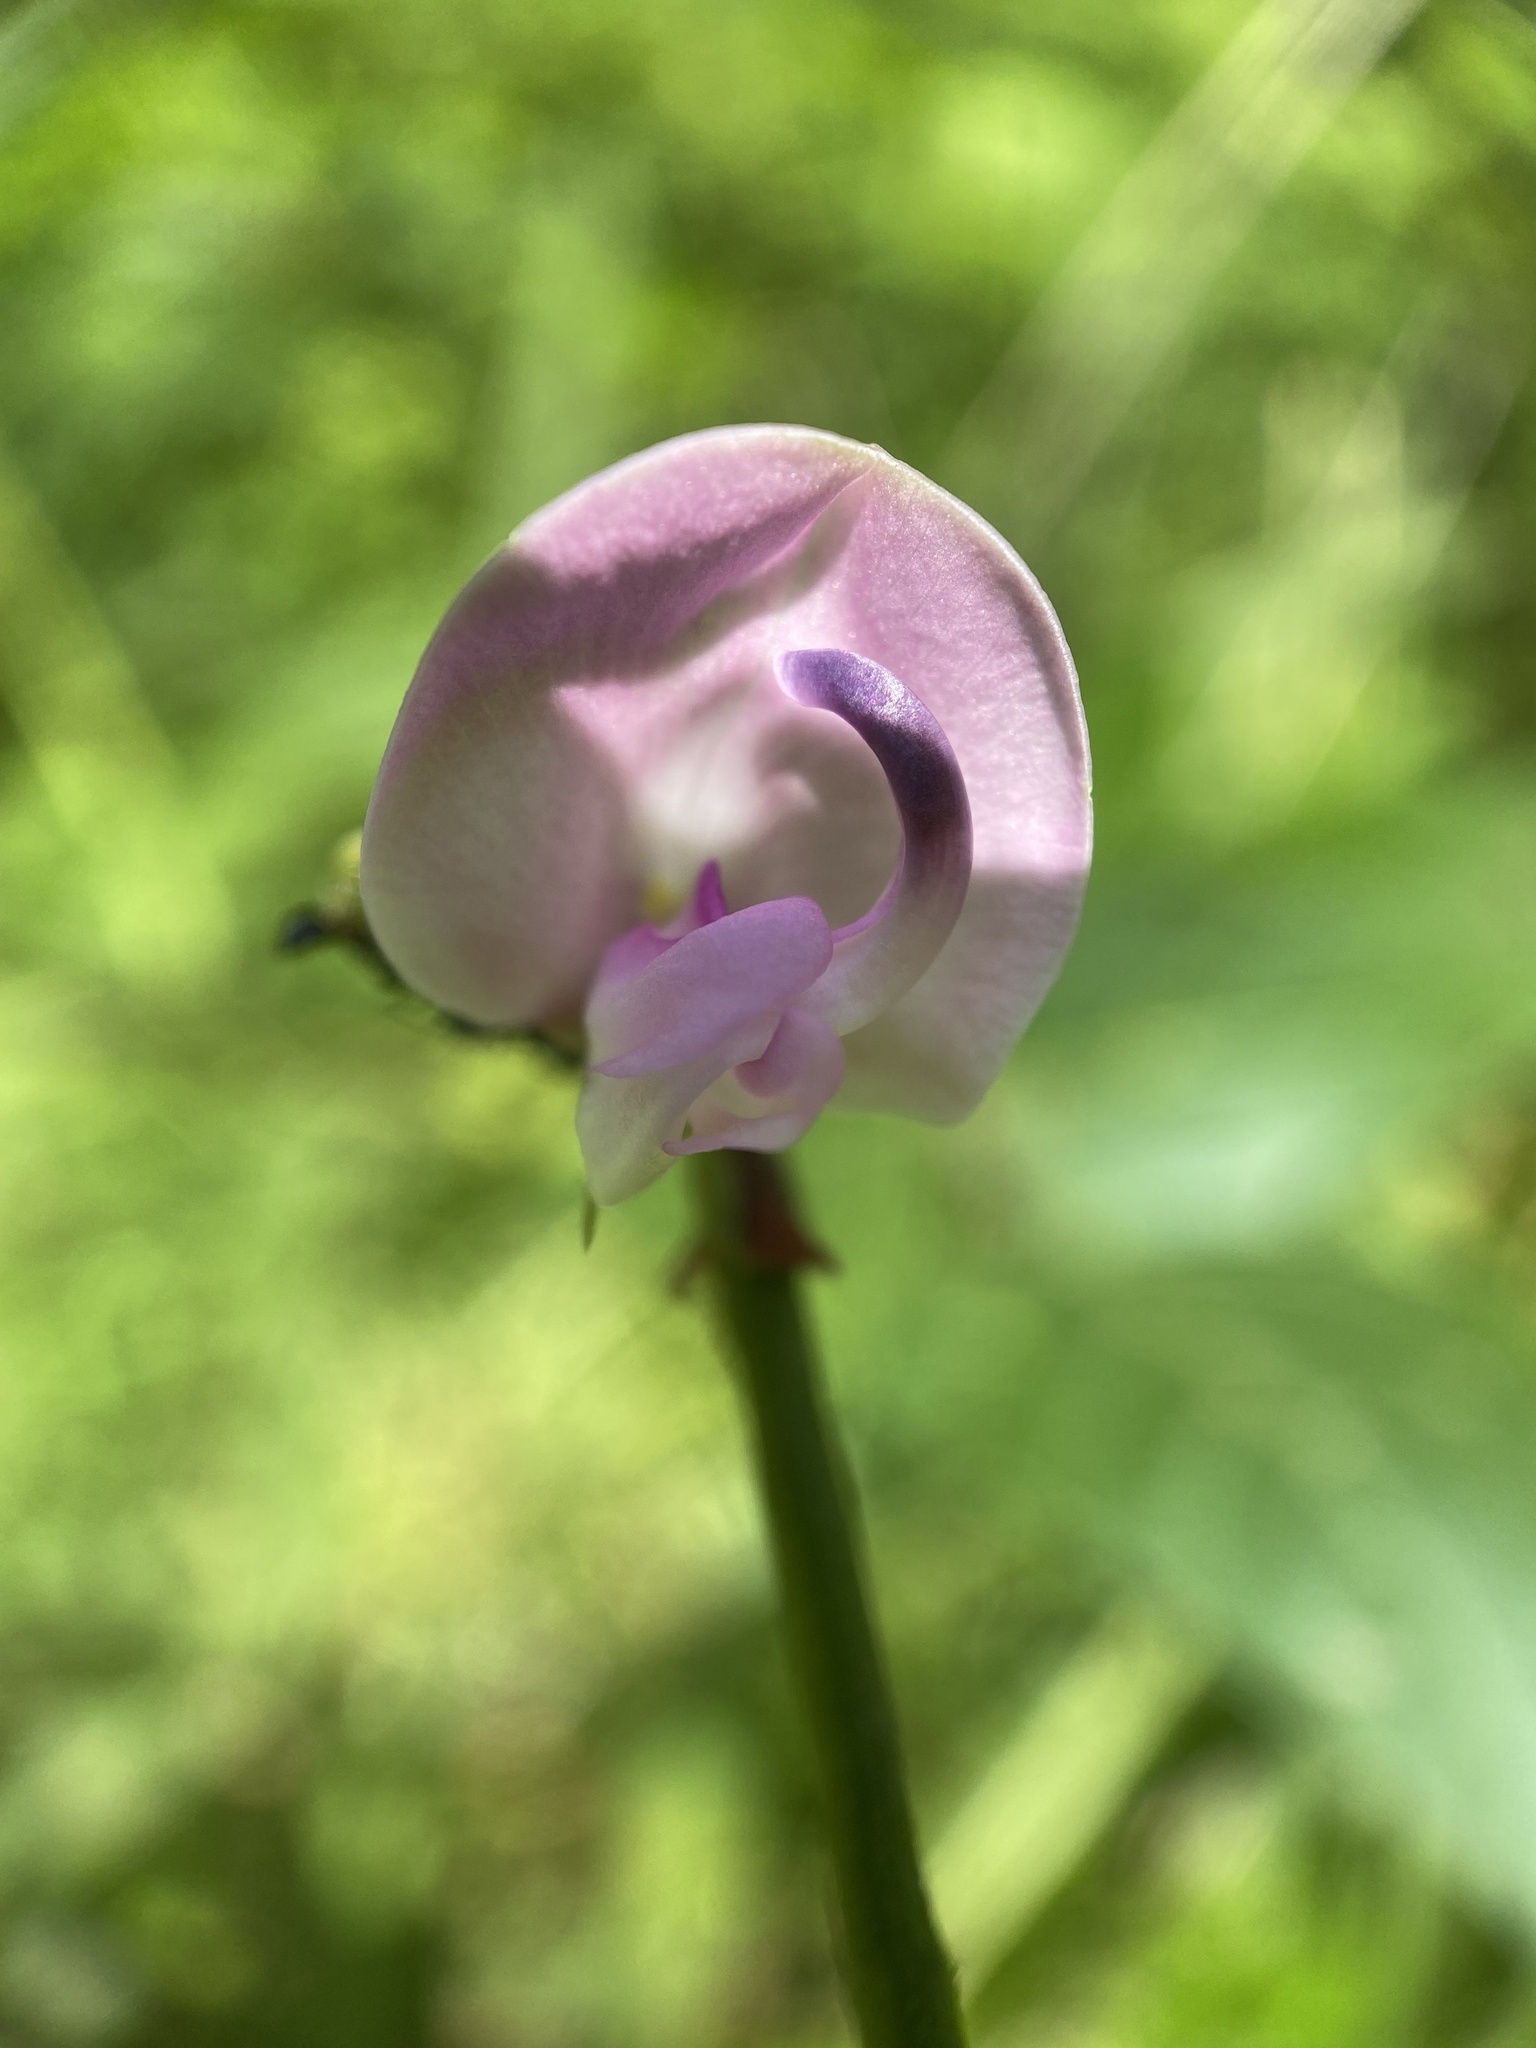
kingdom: Plantae
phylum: Tracheophyta
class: Magnoliopsida
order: Fabales
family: Fabaceae
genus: Strophostyles
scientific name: Strophostyles helvola
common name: Trailing wild bean
